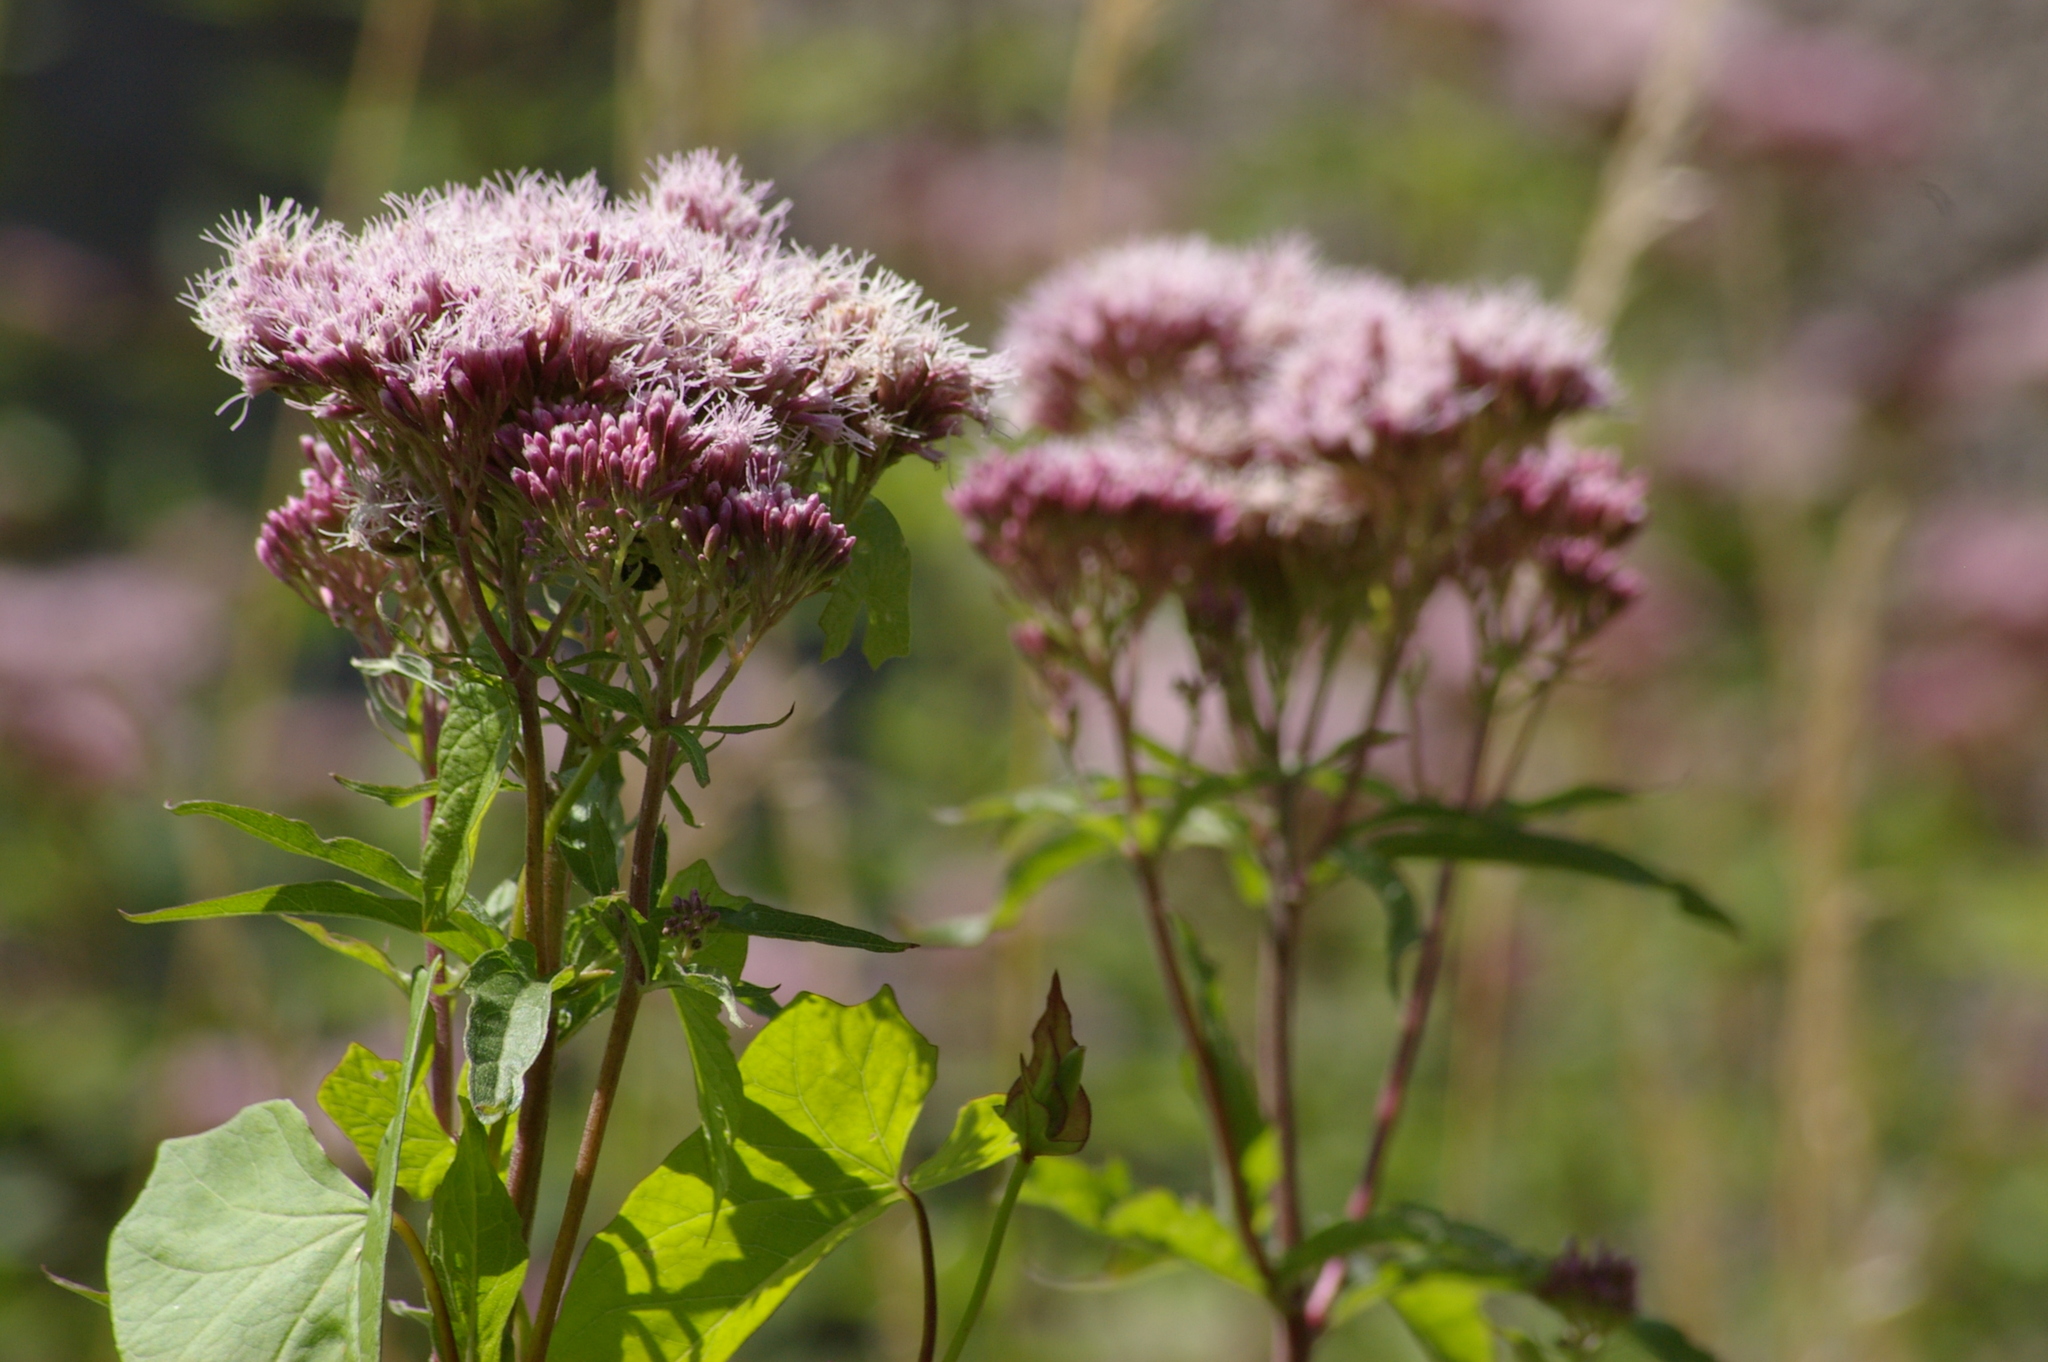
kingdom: Plantae
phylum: Tracheophyta
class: Magnoliopsida
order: Asterales
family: Asteraceae
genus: Eupatorium
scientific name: Eupatorium cannabinum
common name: Hemp-agrimony
